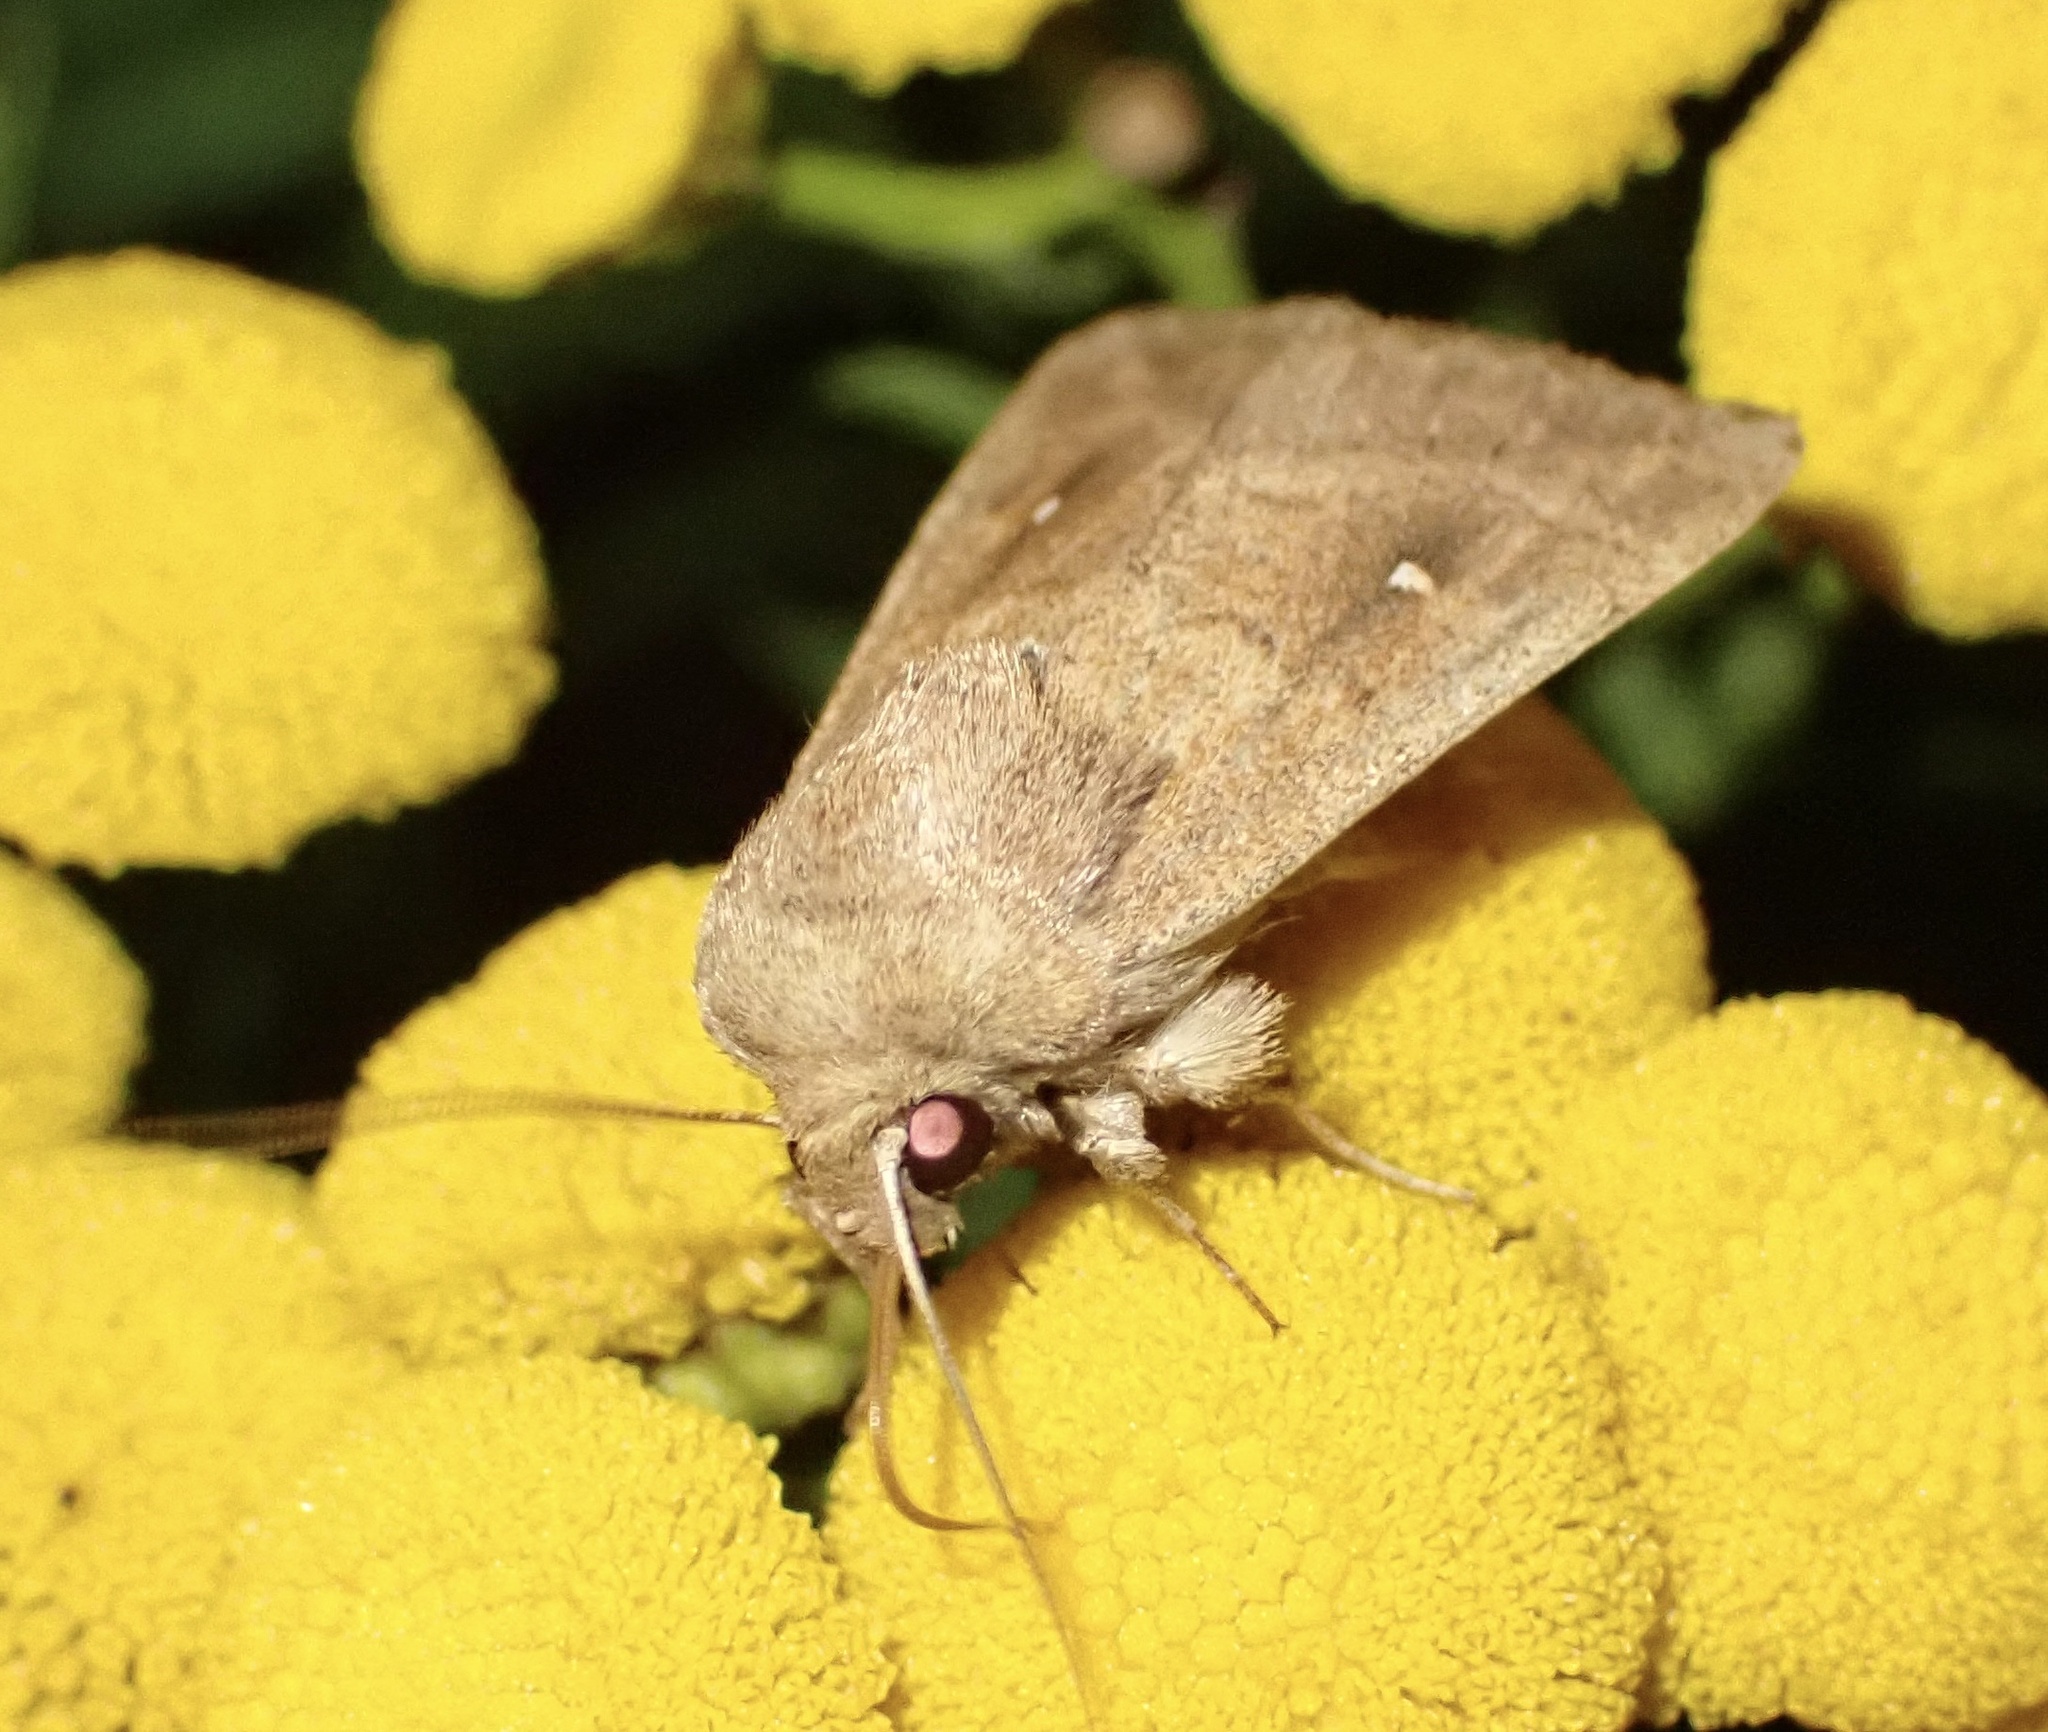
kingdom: Animalia
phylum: Arthropoda
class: Insecta
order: Lepidoptera
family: Noctuidae
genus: Mythimna
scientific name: Mythimna albipuncta
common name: White-point
